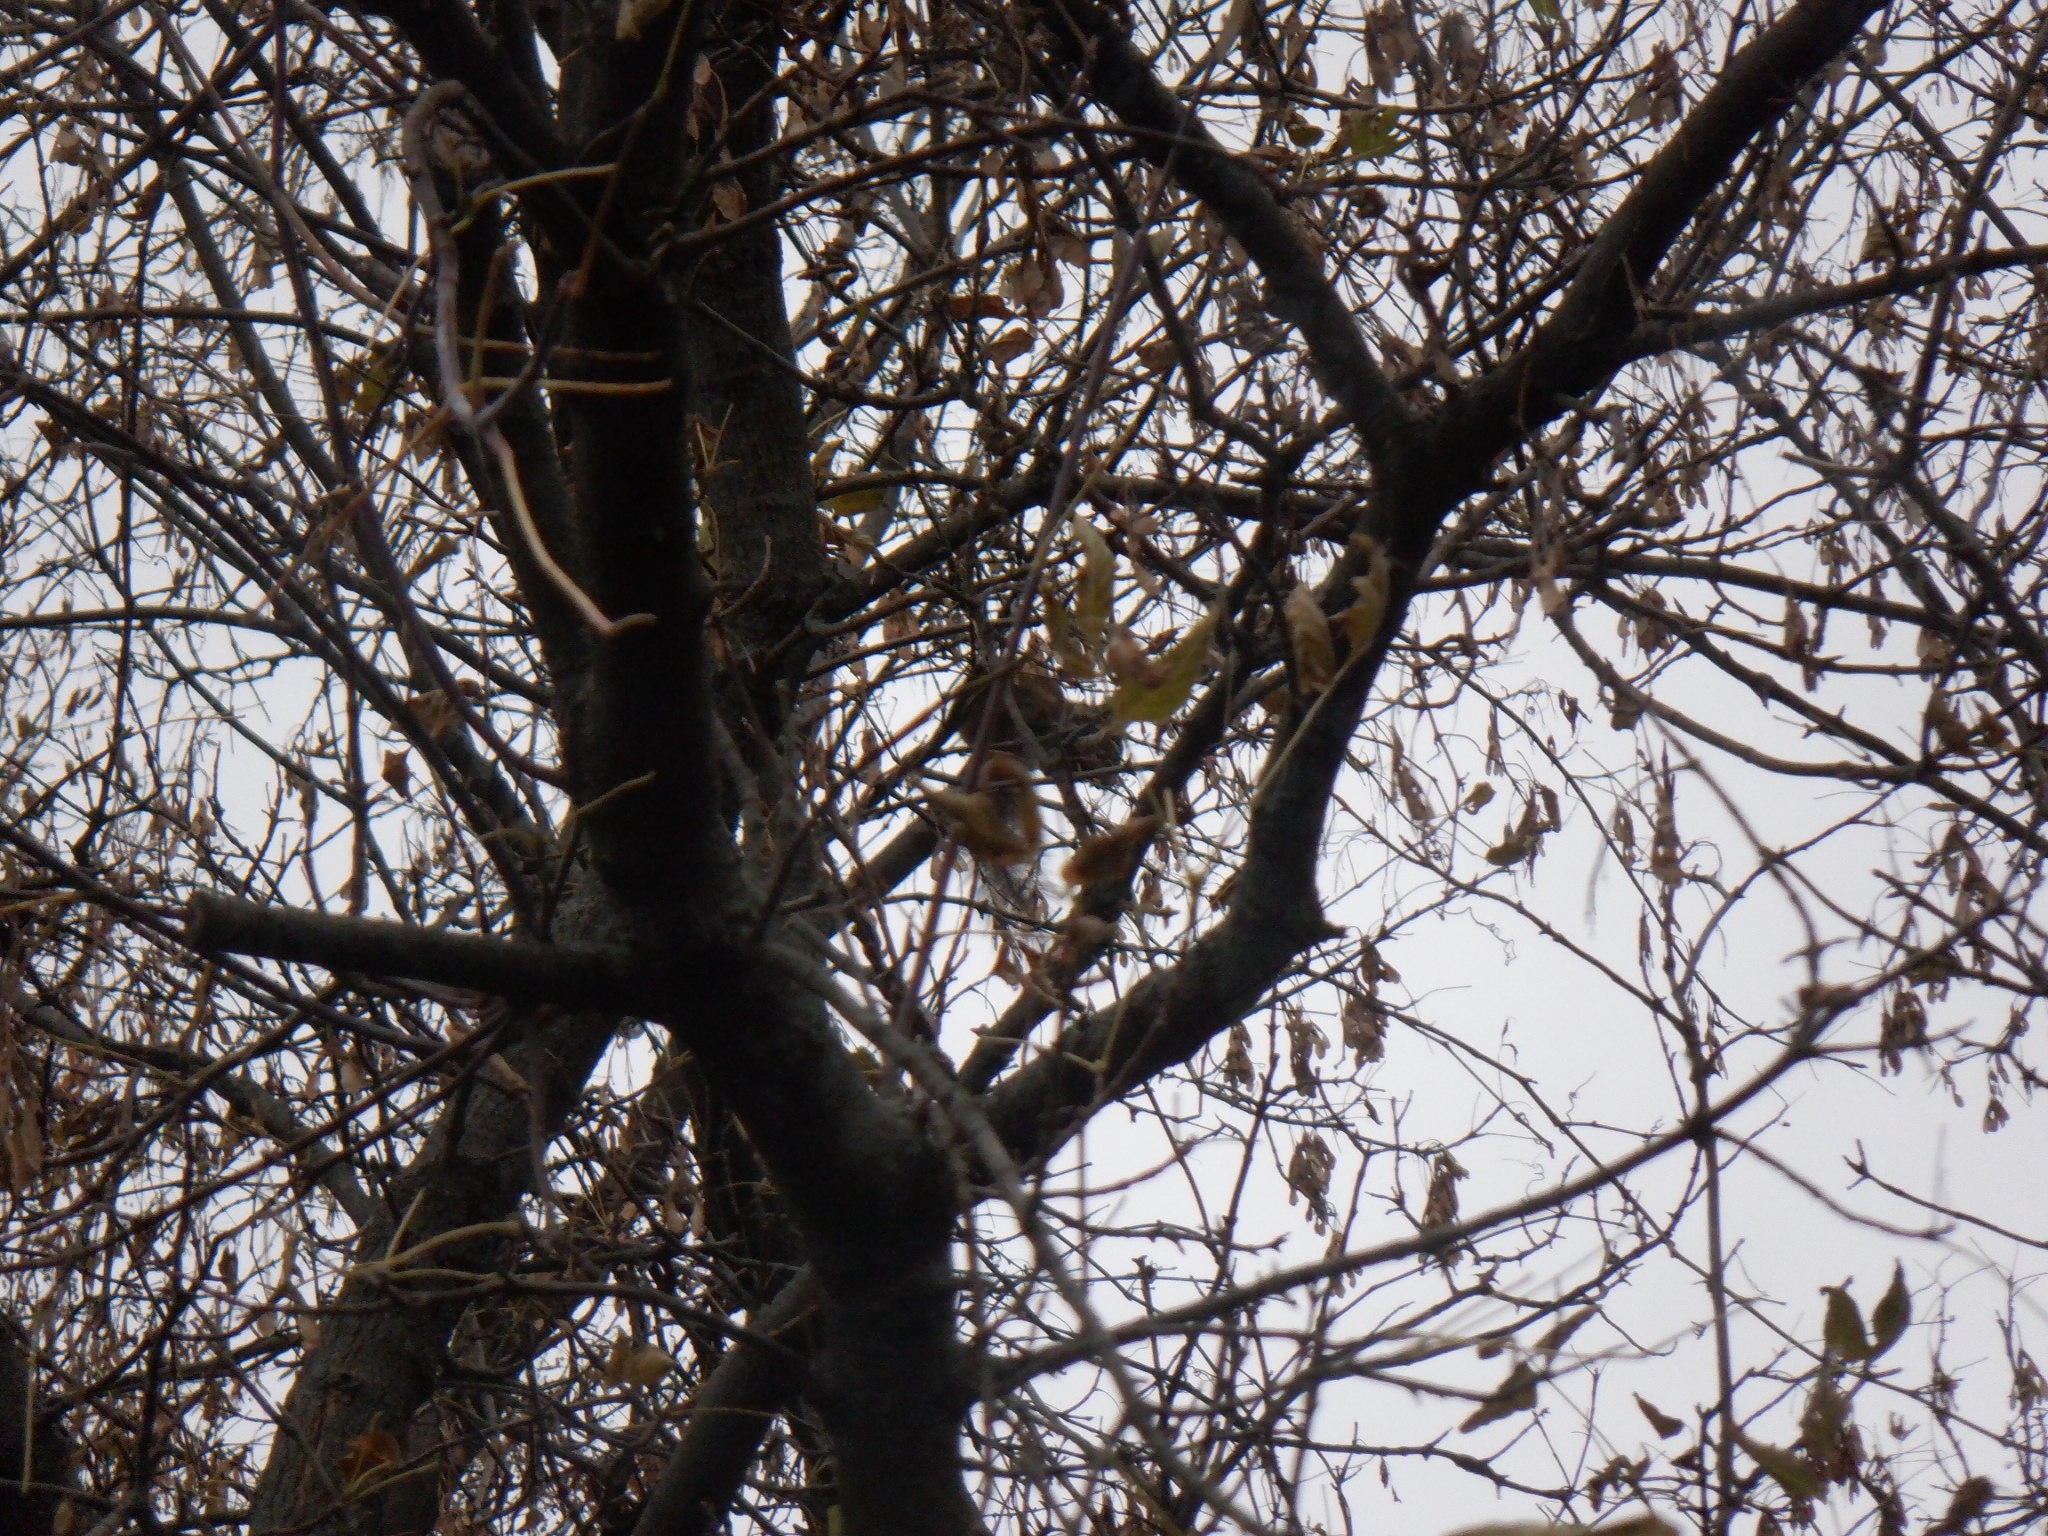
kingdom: Animalia
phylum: Chordata
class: Mammalia
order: Rodentia
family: Sciuridae
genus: Sciurus
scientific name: Sciurus carolinensis
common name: Eastern gray squirrel
